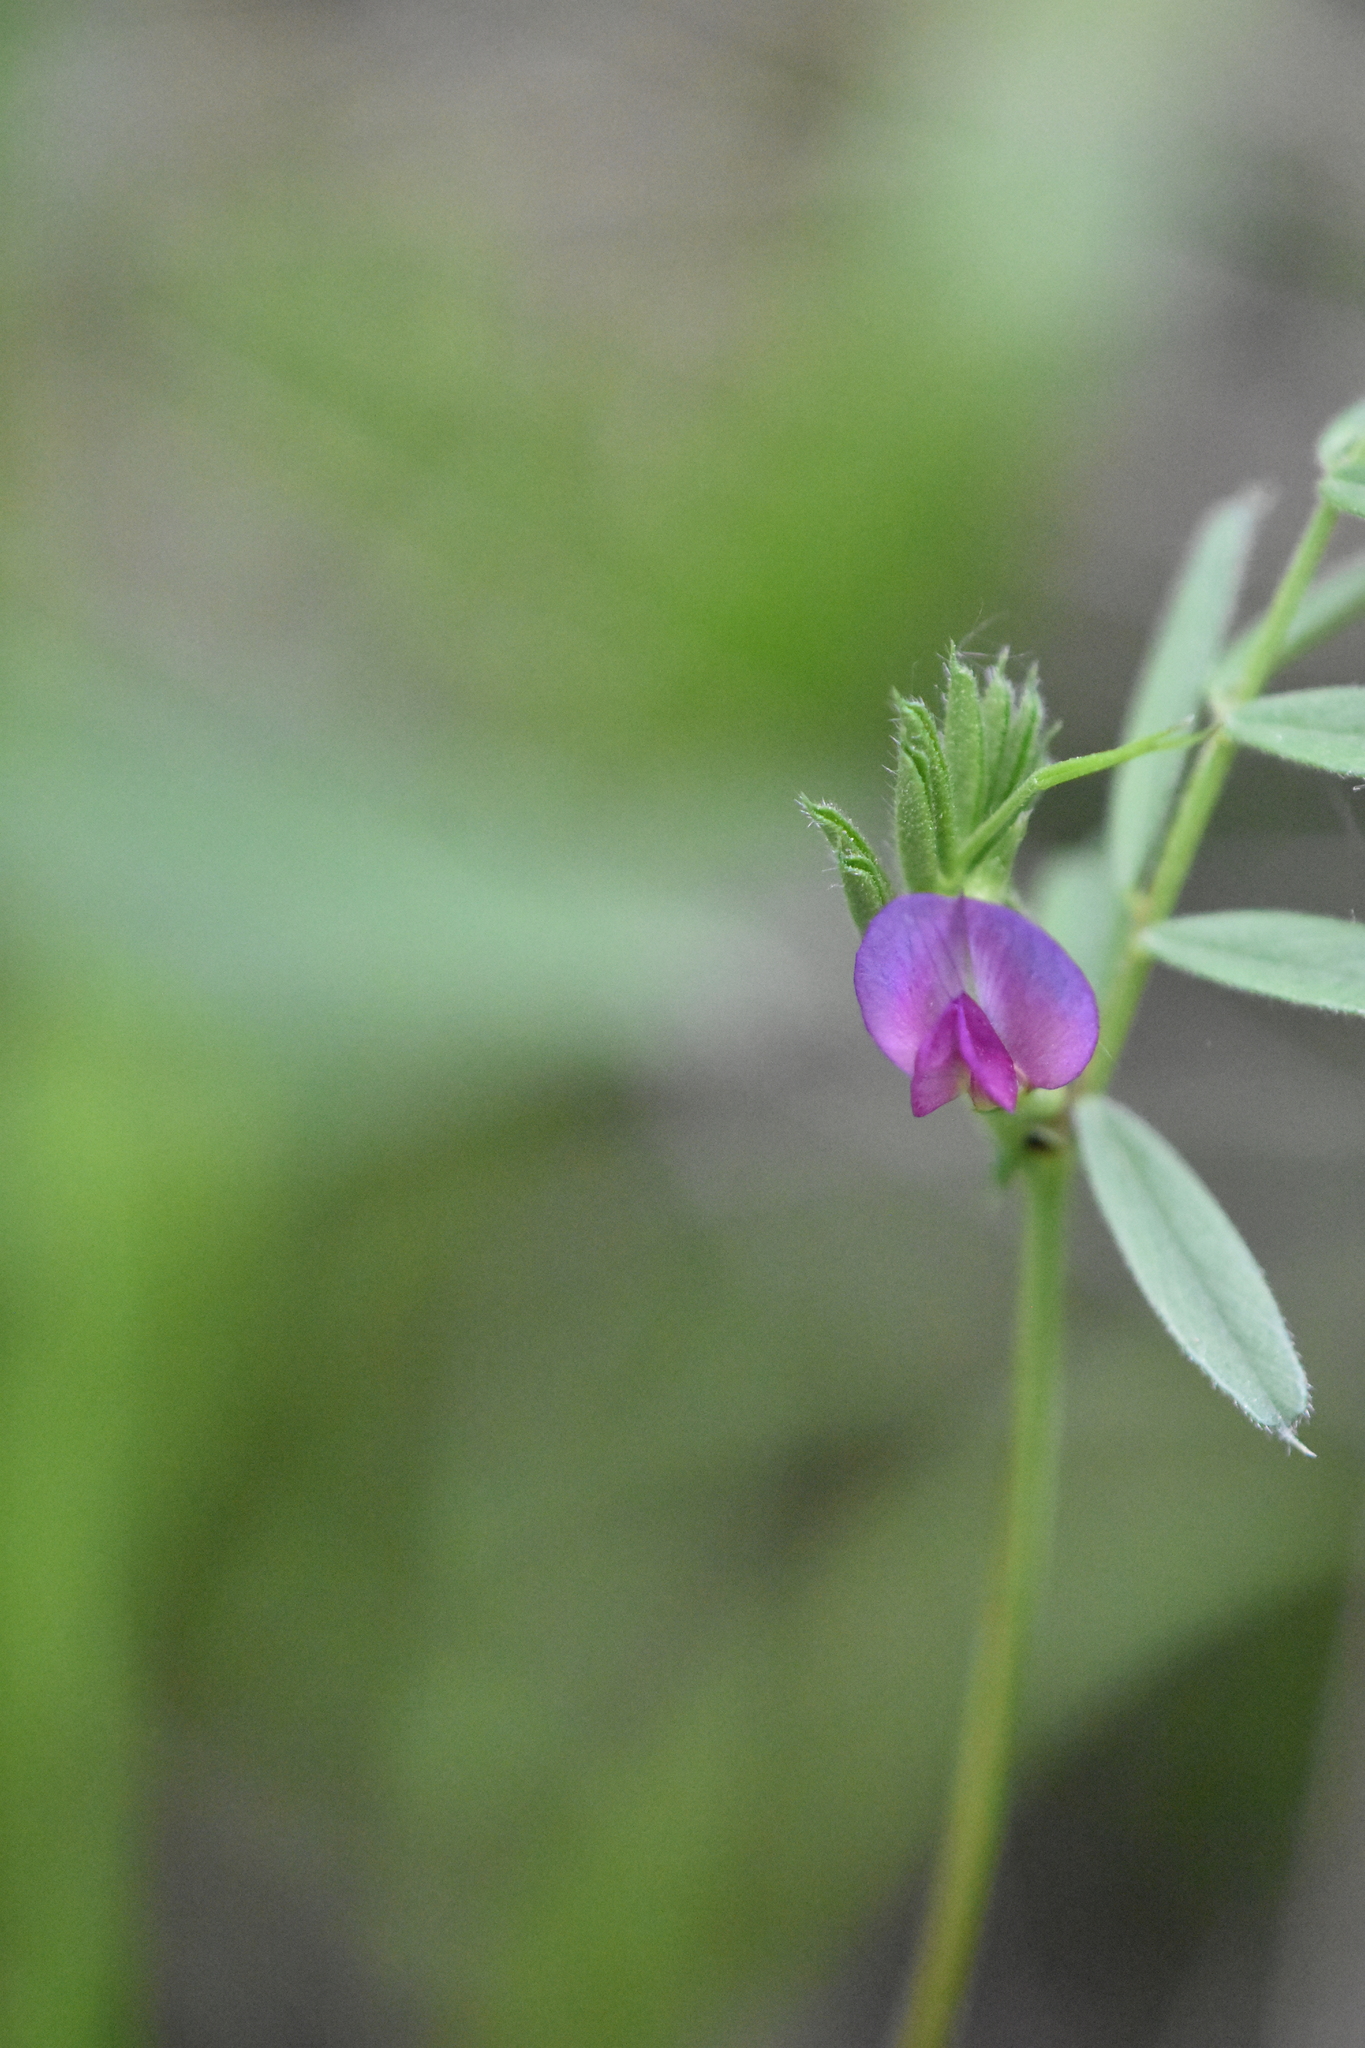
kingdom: Plantae
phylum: Tracheophyta
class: Magnoliopsida
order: Fabales
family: Fabaceae
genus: Vicia
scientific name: Vicia sativa
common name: Garden vetch
